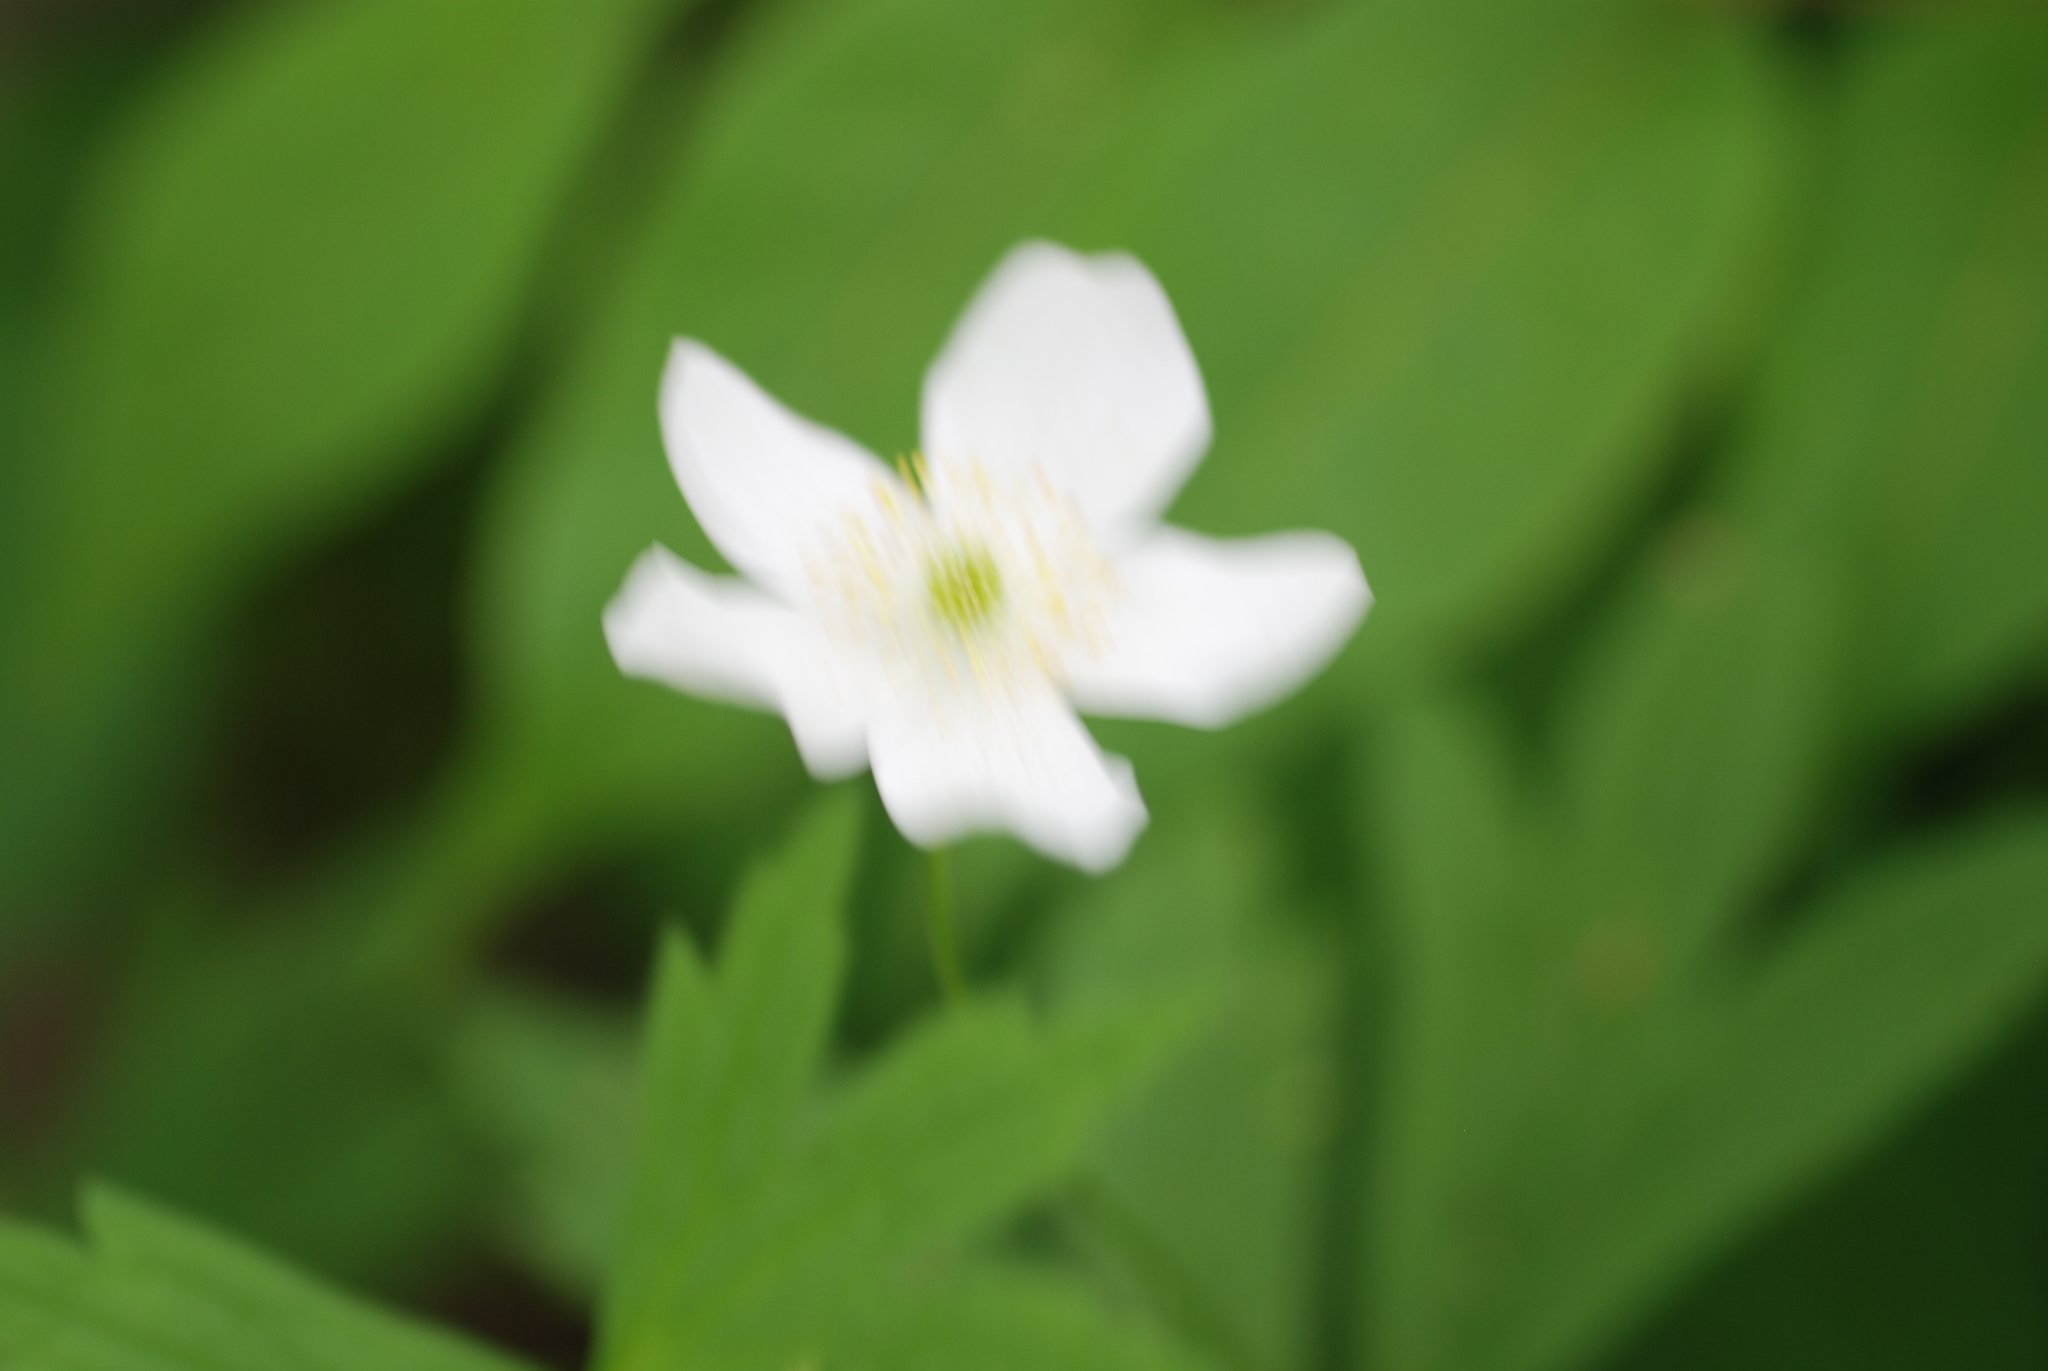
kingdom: Plantae
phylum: Tracheophyta
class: Magnoliopsida
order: Ranunculales
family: Ranunculaceae
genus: Anemonastrum
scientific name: Anemonastrum canadense
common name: Canada anemone
